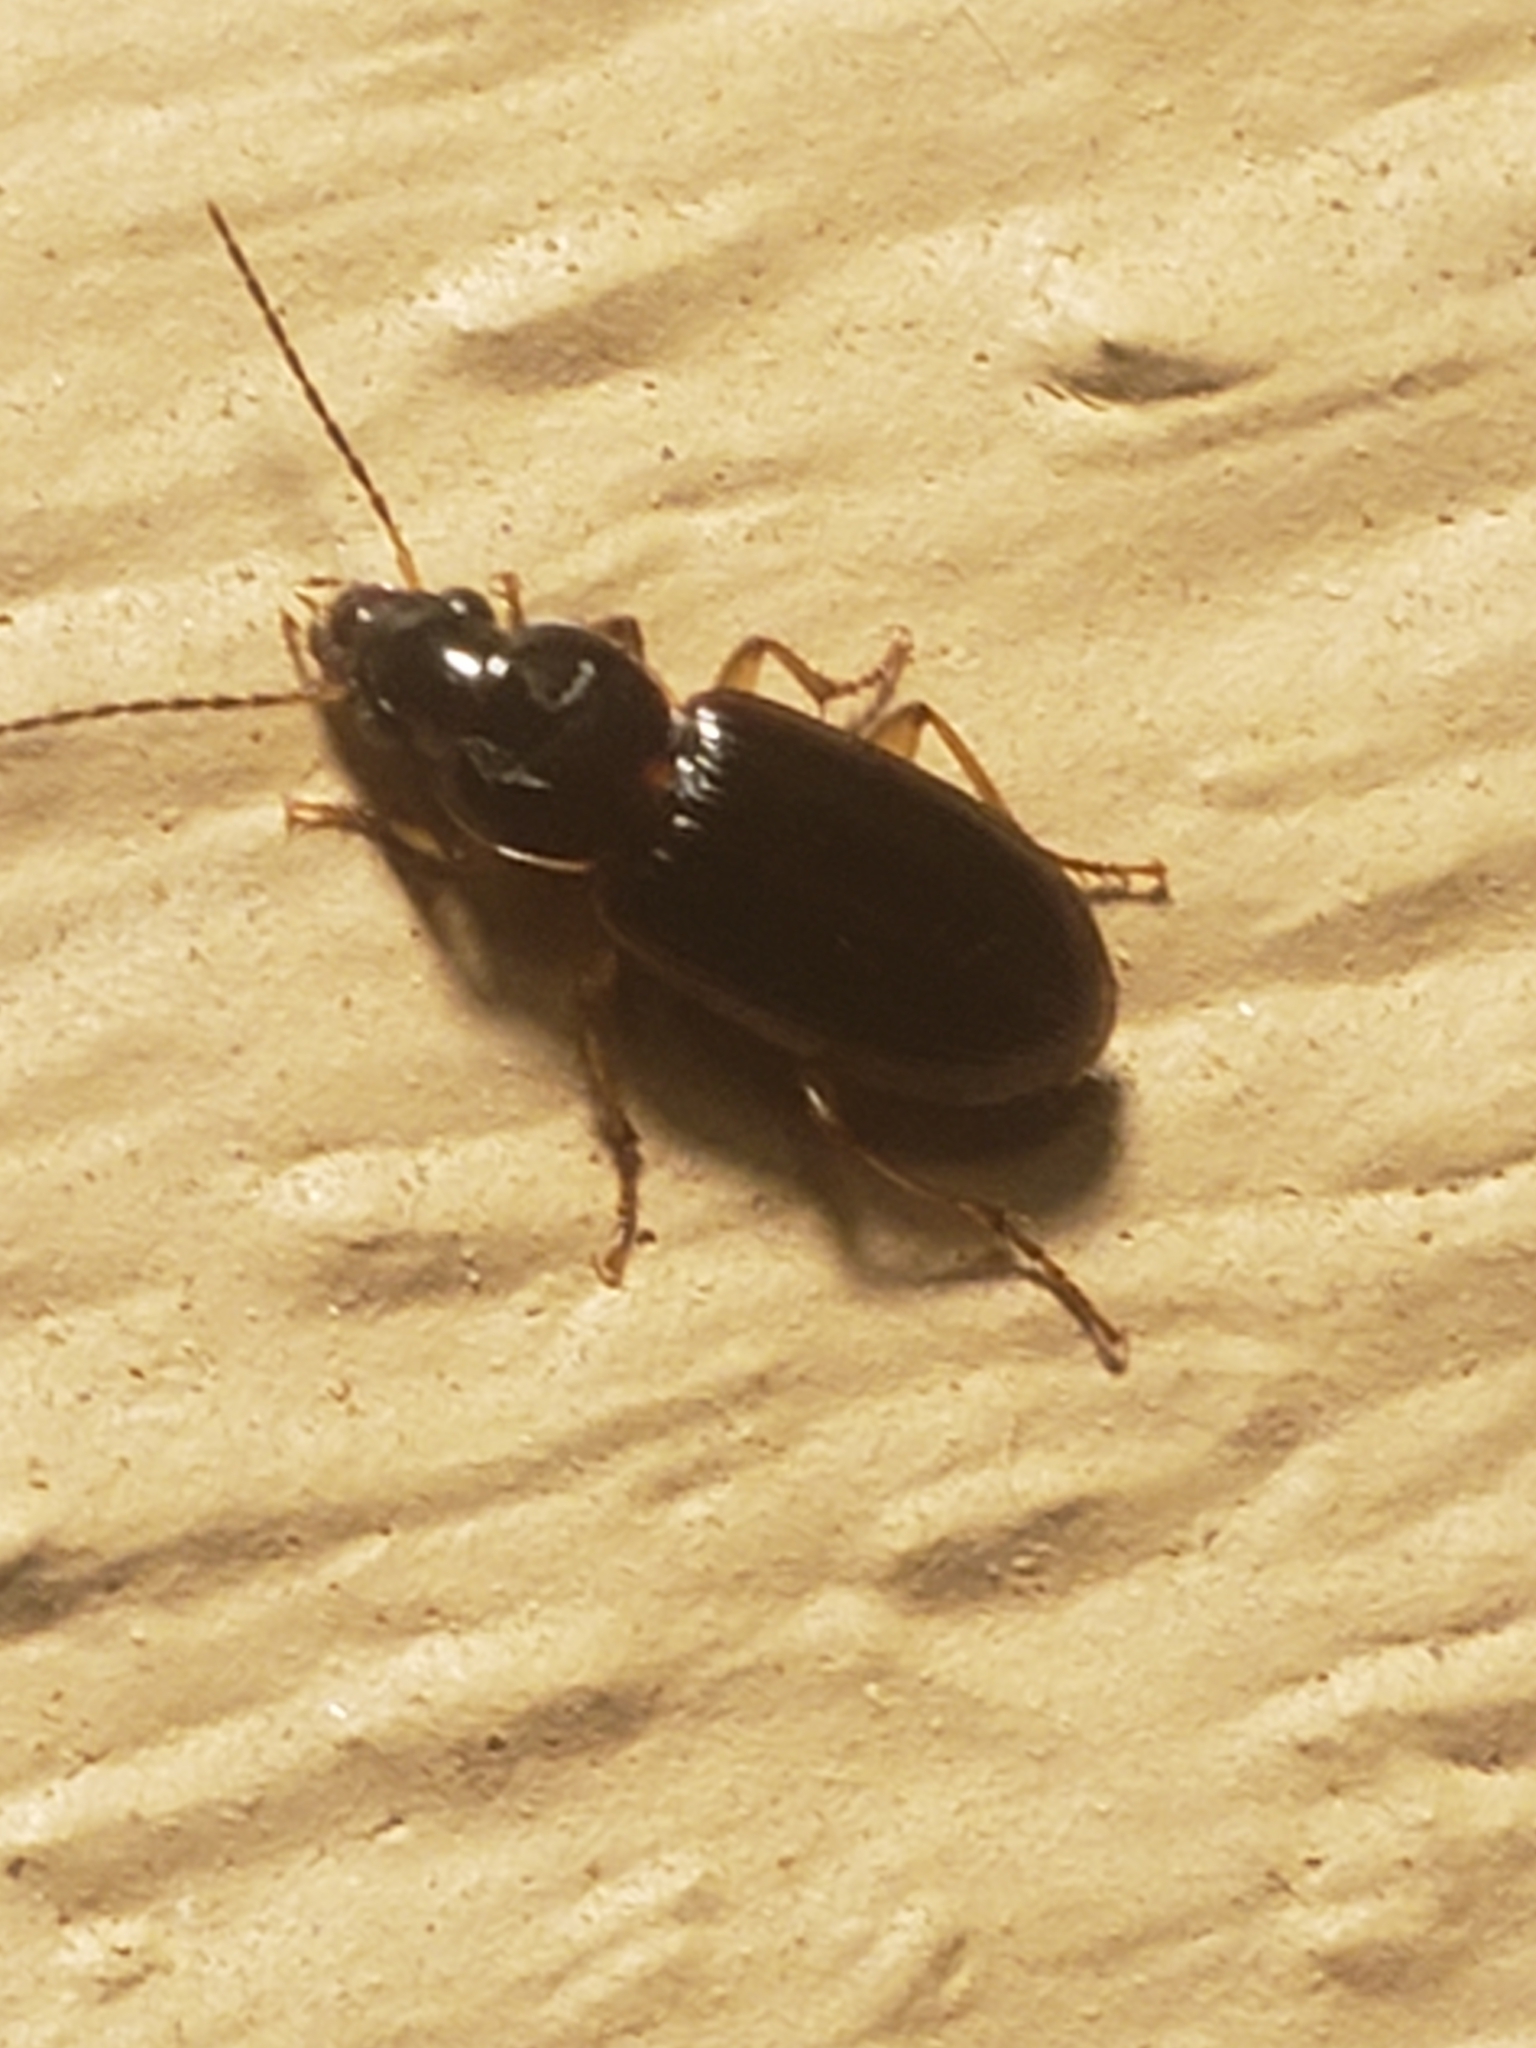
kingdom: Animalia
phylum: Arthropoda
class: Insecta
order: Coleoptera
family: Carabidae
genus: Stenolophus
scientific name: Stenolophus ochropezus
